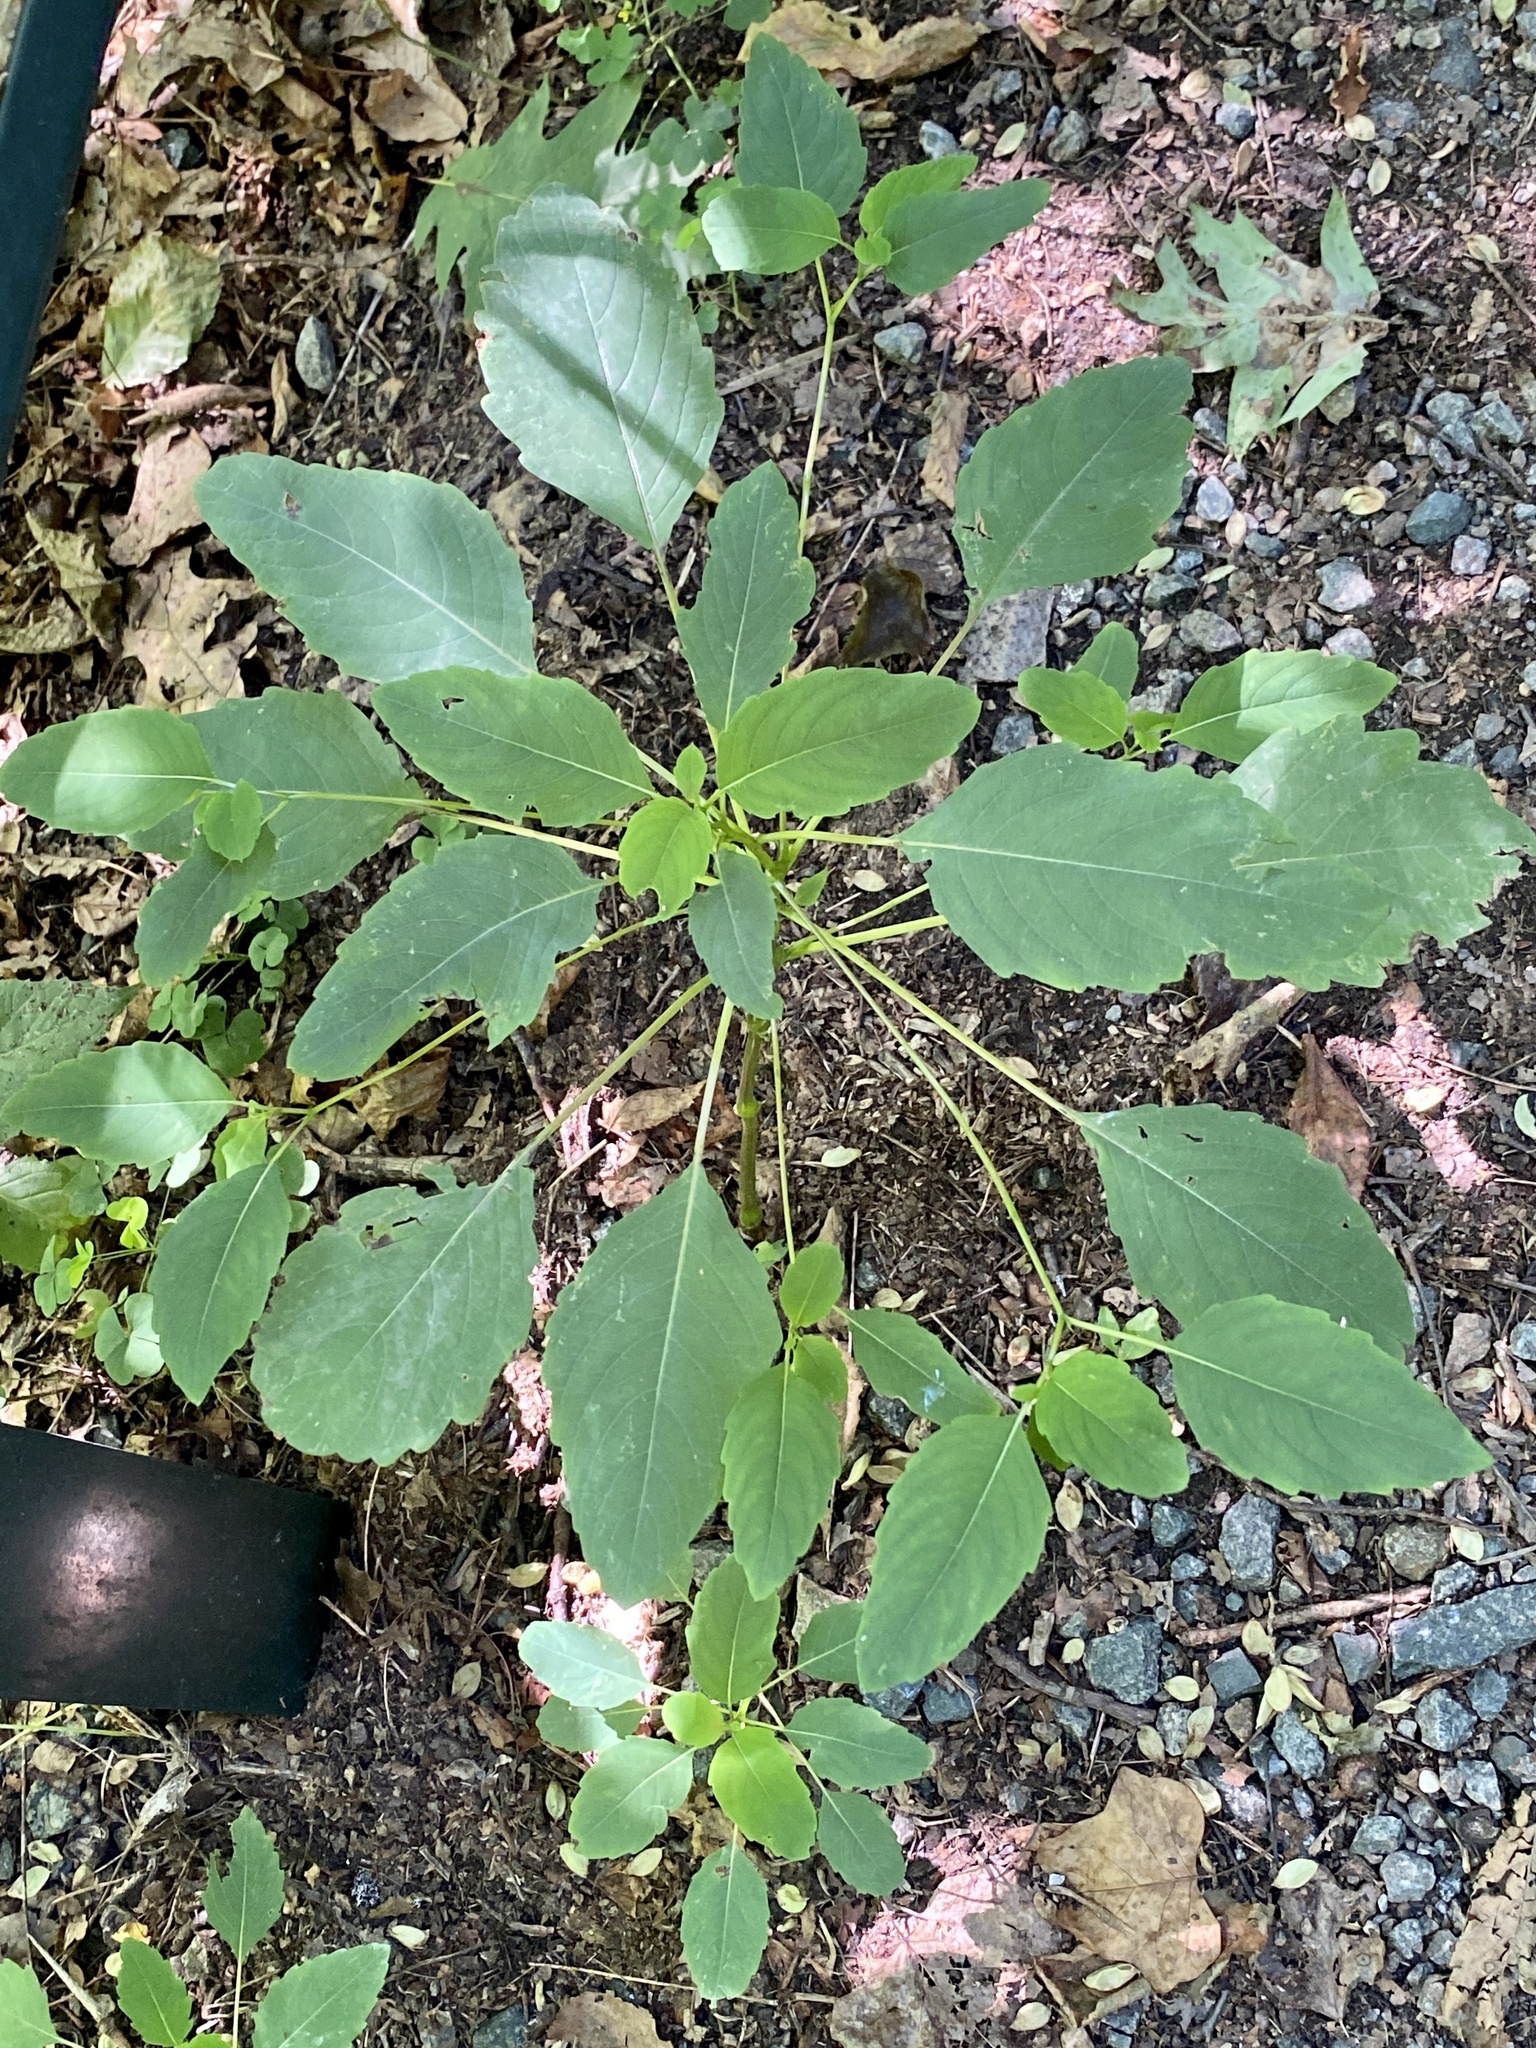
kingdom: Plantae
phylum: Tracheophyta
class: Magnoliopsida
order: Ericales
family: Balsaminaceae
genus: Impatiens
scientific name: Impatiens capensis
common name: Orange balsam
